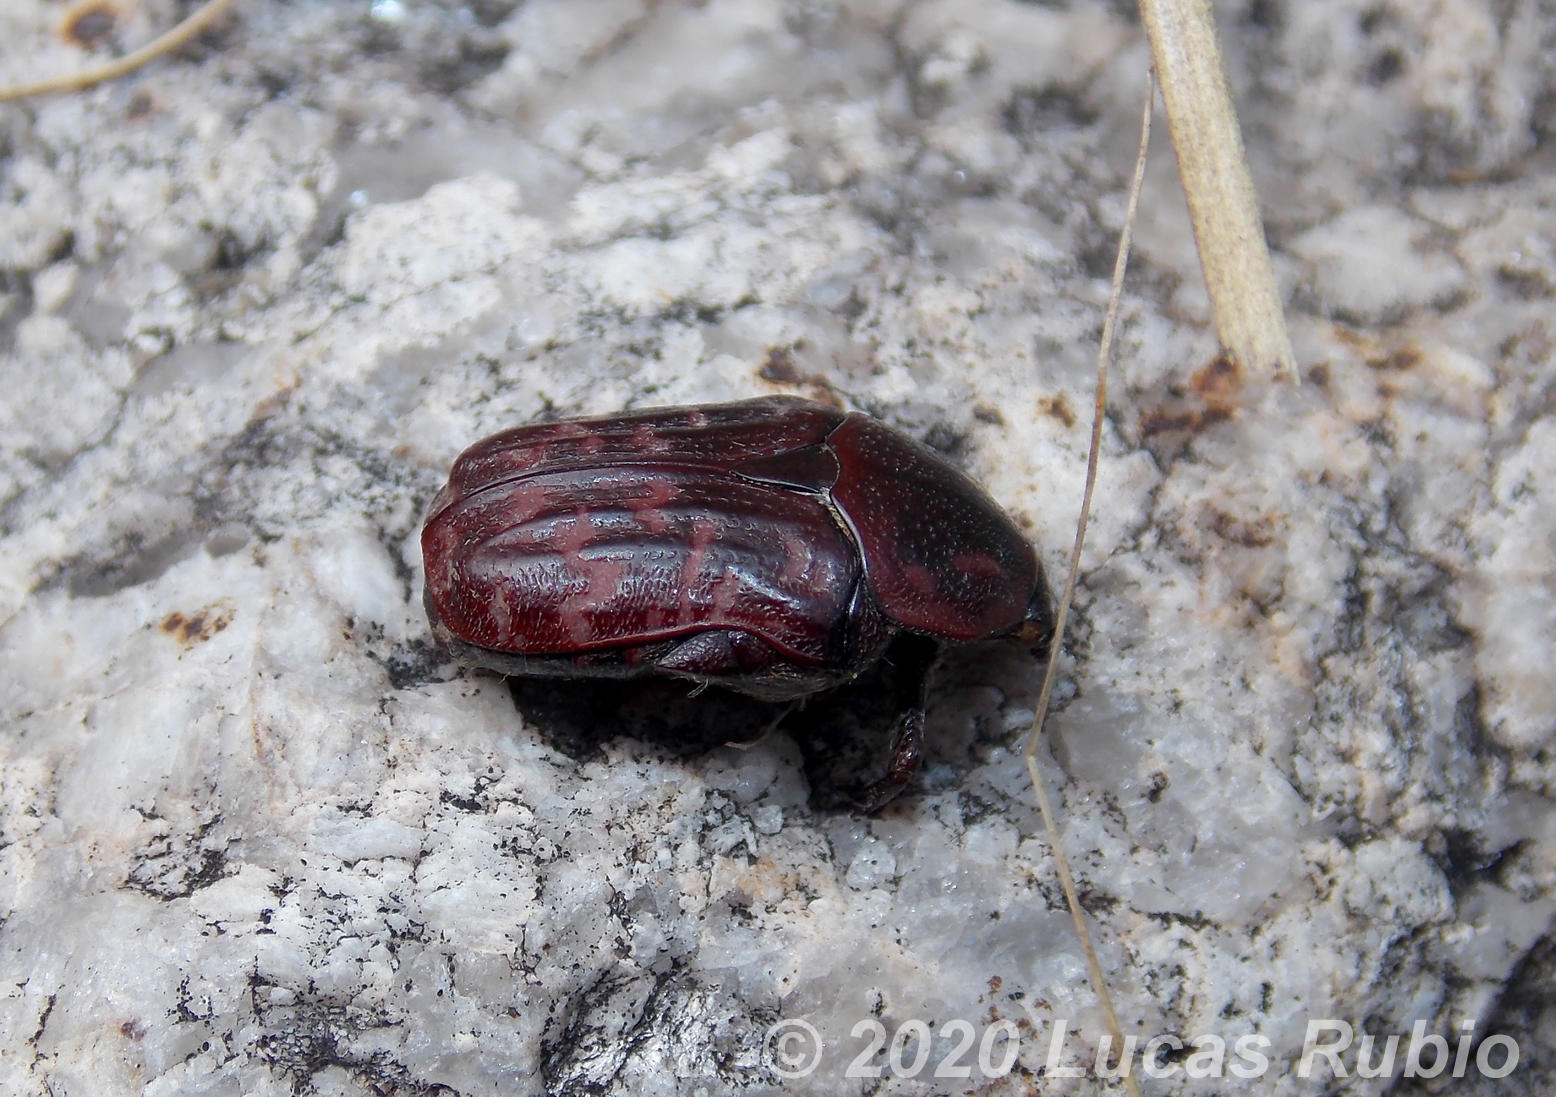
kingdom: Animalia
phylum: Arthropoda
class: Insecta
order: Coleoptera
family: Scarabaeidae
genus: Euphoria
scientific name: Euphoria lurida
